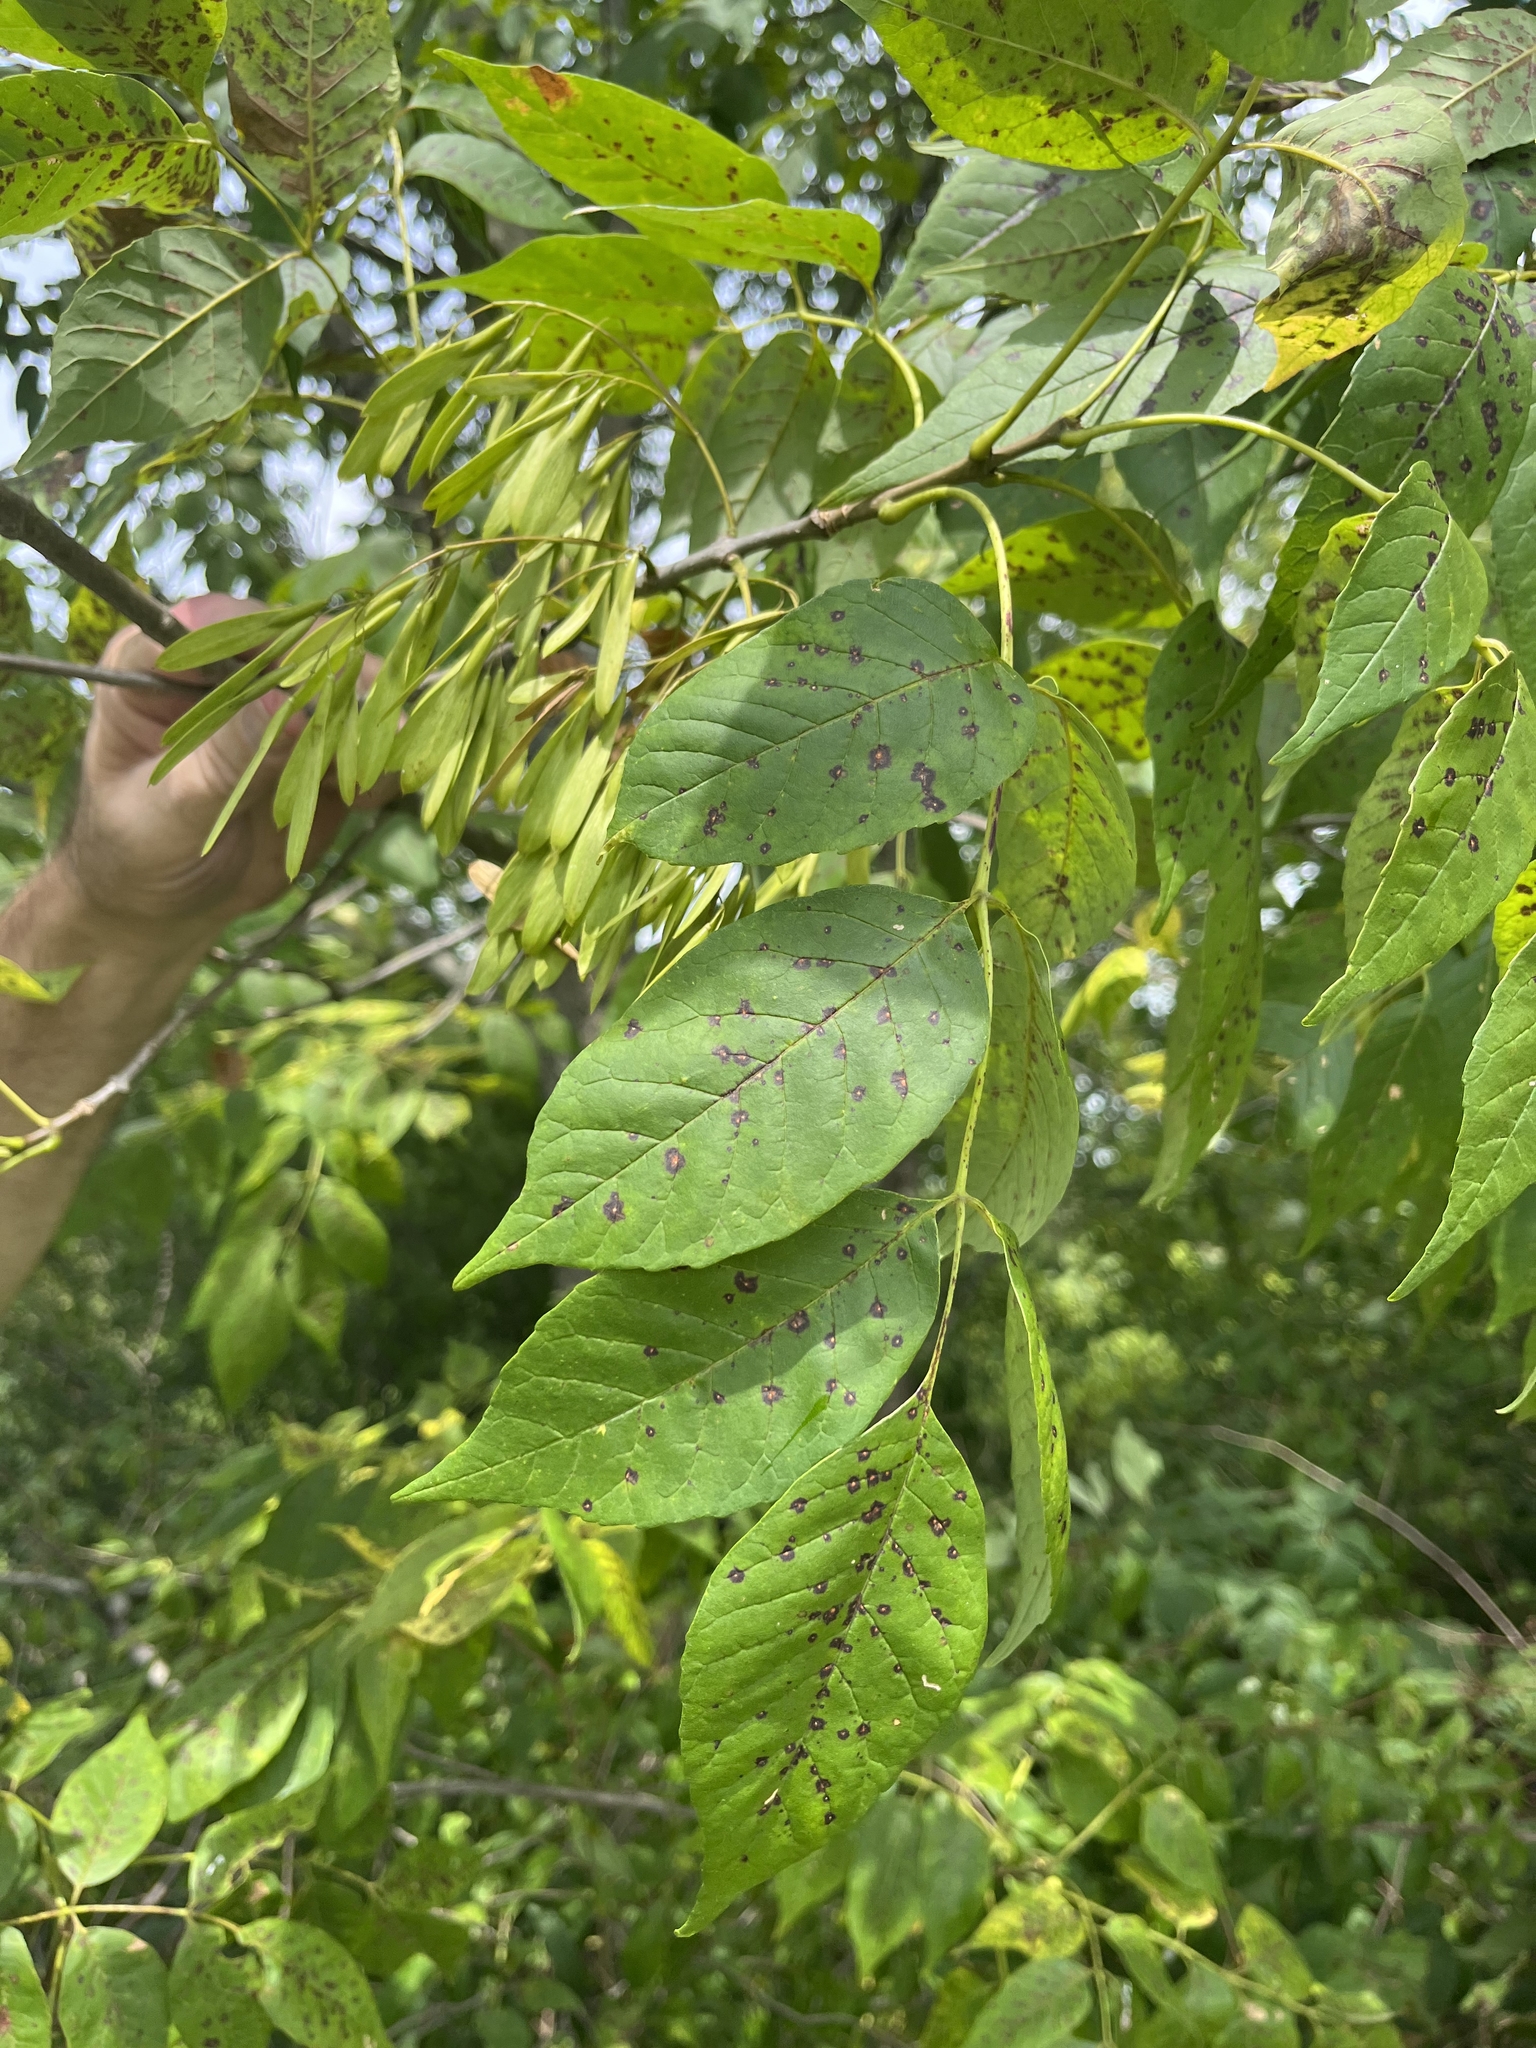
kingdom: Plantae
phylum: Tracheophyta
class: Magnoliopsida
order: Lamiales
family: Oleaceae
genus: Fraxinus
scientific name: Fraxinus americana
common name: White ash
